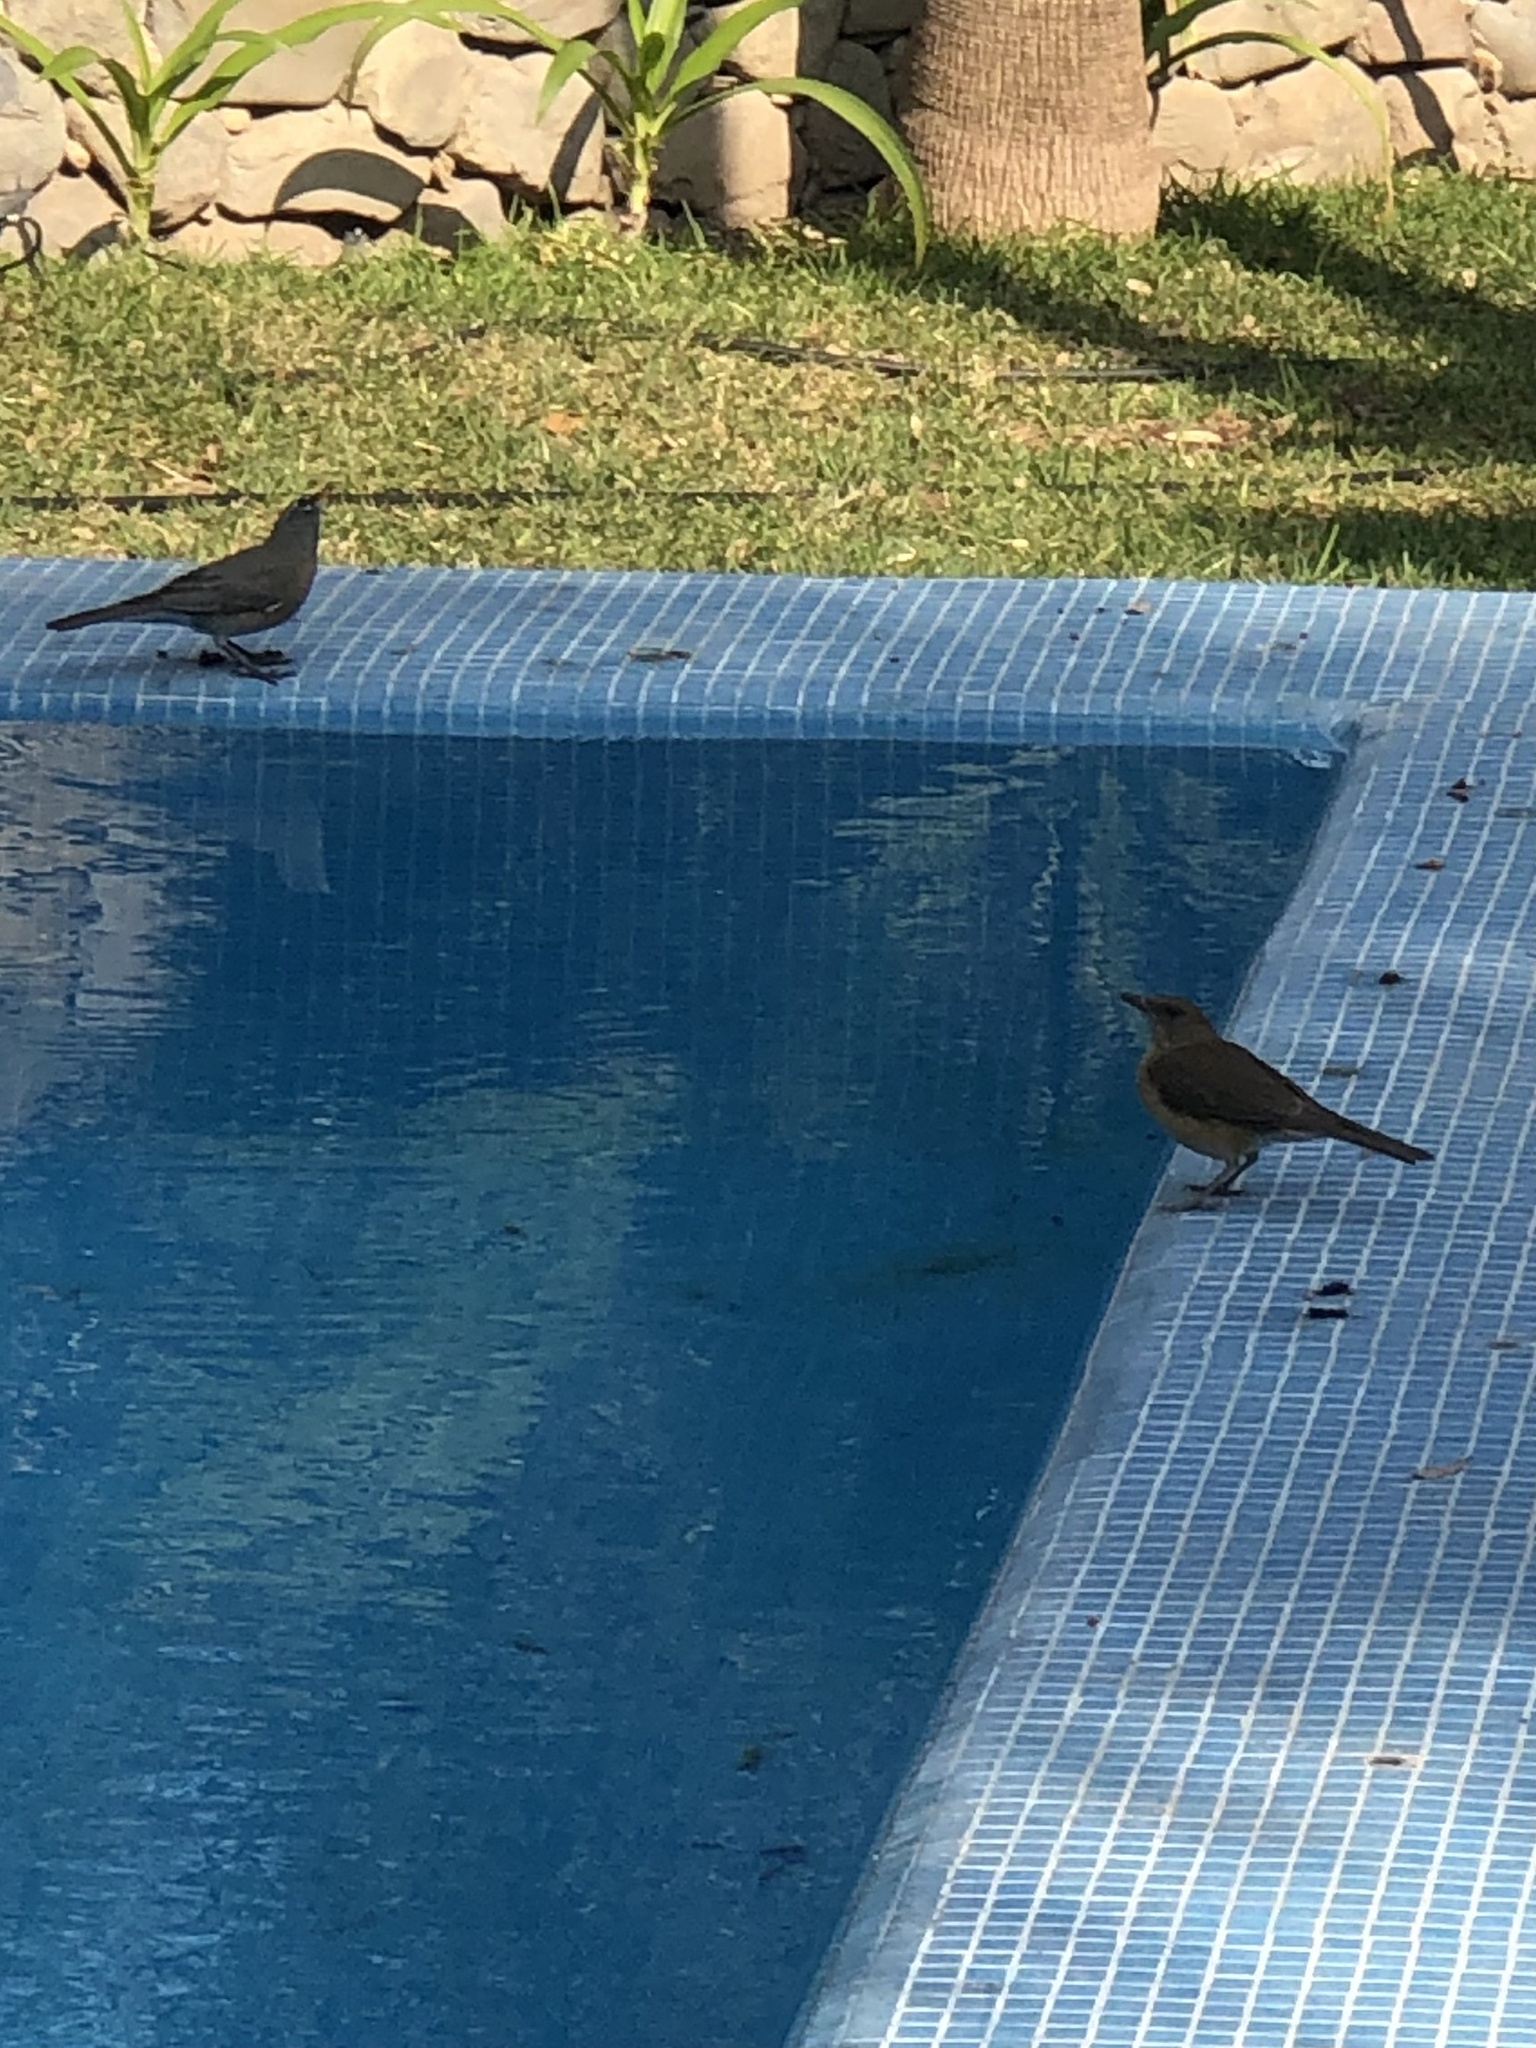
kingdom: Animalia
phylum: Chordata
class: Aves
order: Passeriformes
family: Turdidae
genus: Turdus
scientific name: Turdus grayi
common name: Clay-colored thrush
